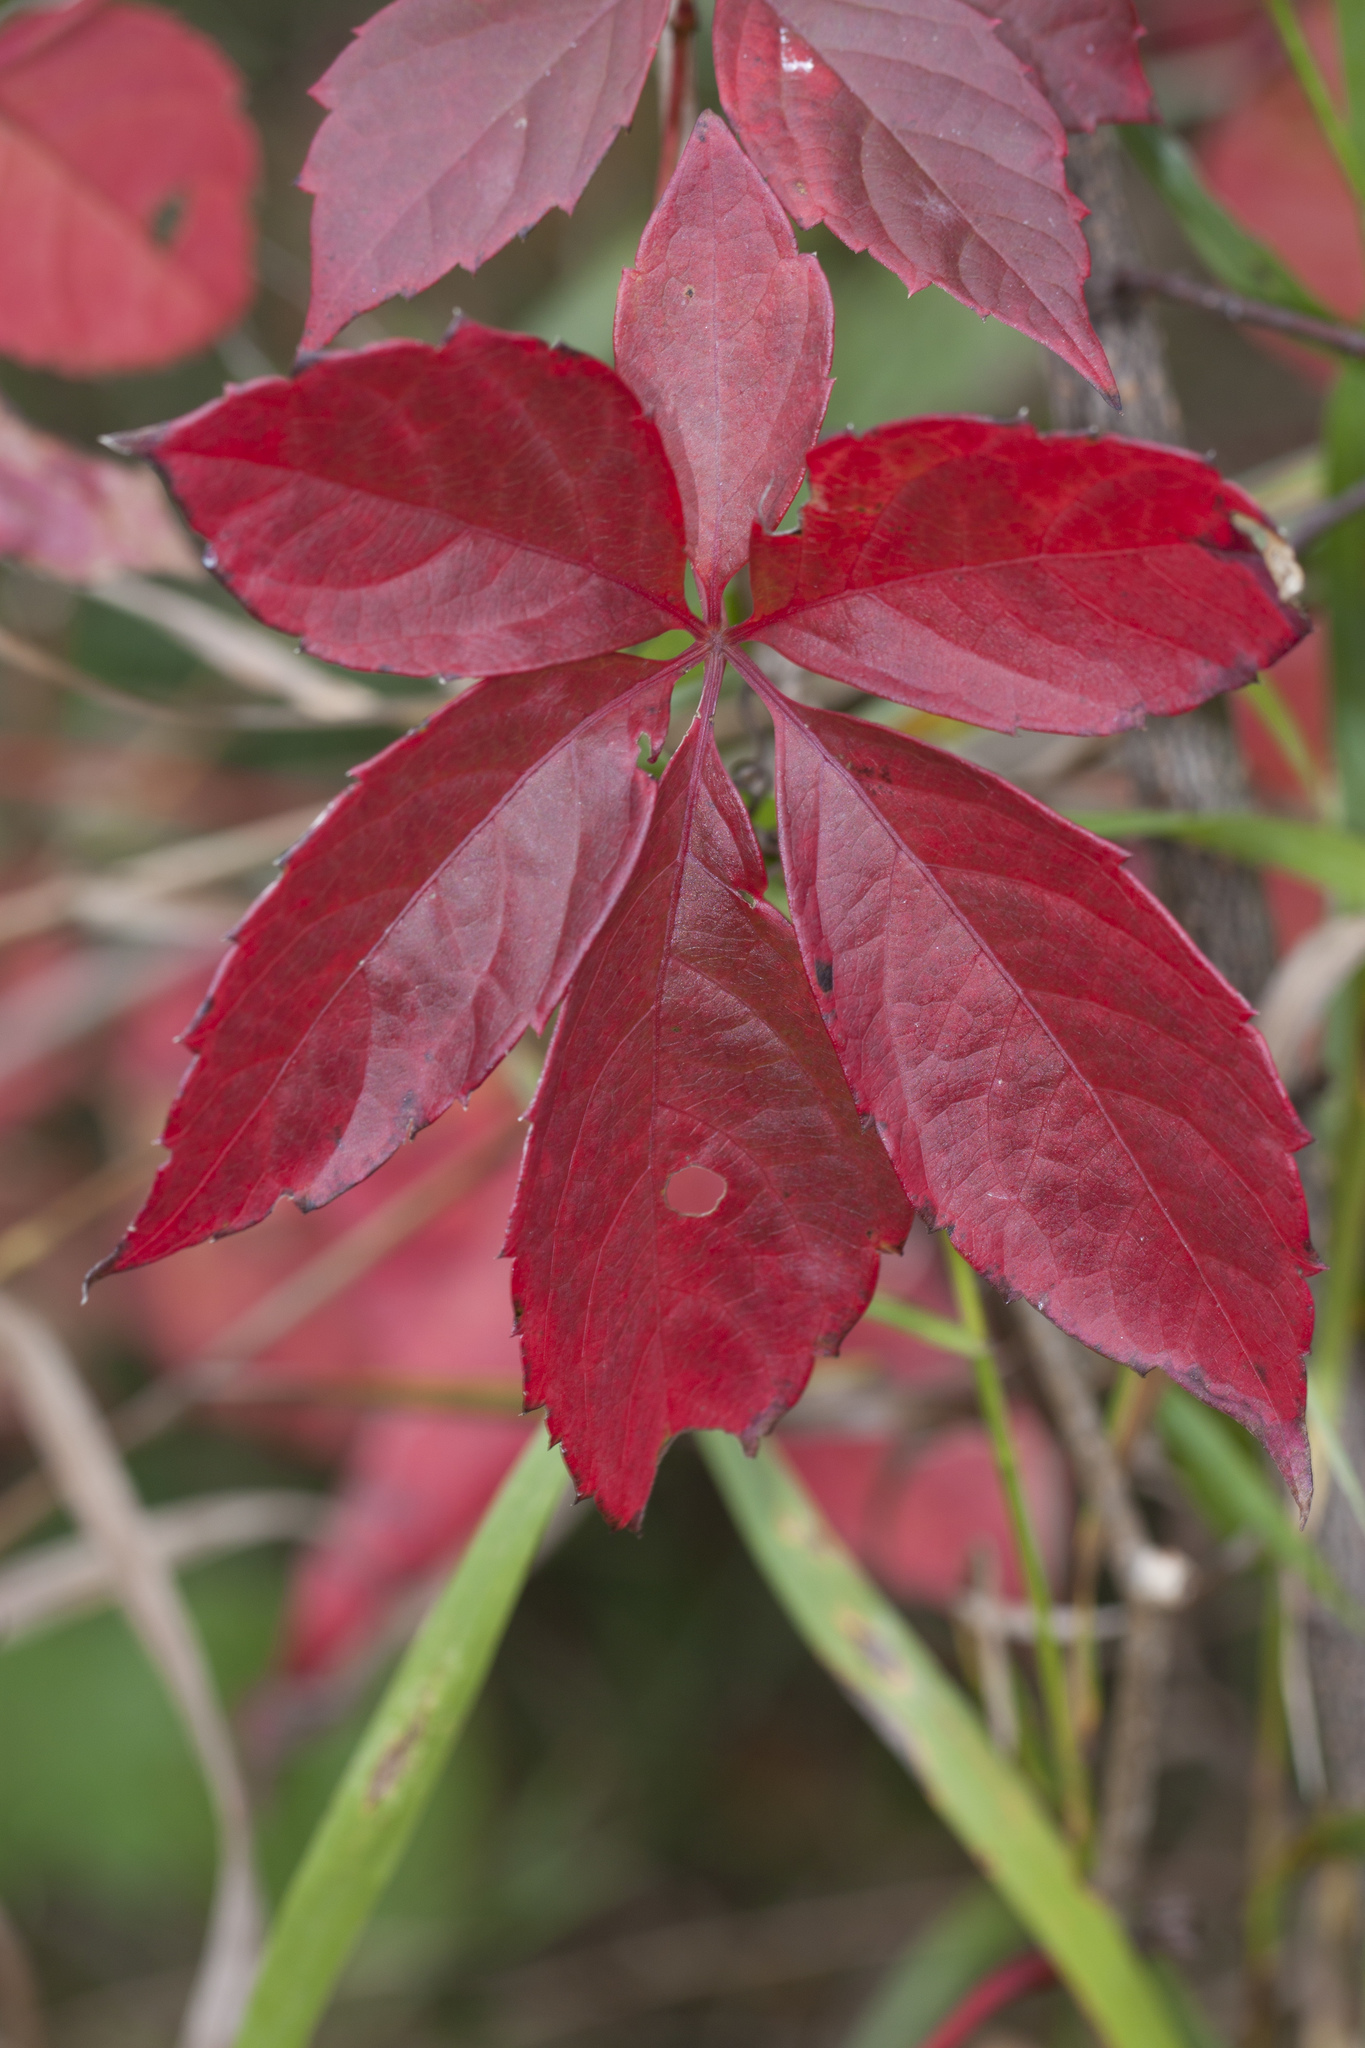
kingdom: Plantae
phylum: Tracheophyta
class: Magnoliopsida
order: Vitales
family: Vitaceae
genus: Parthenocissus
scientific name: Parthenocissus quinquefolia
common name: Virginia-creeper
